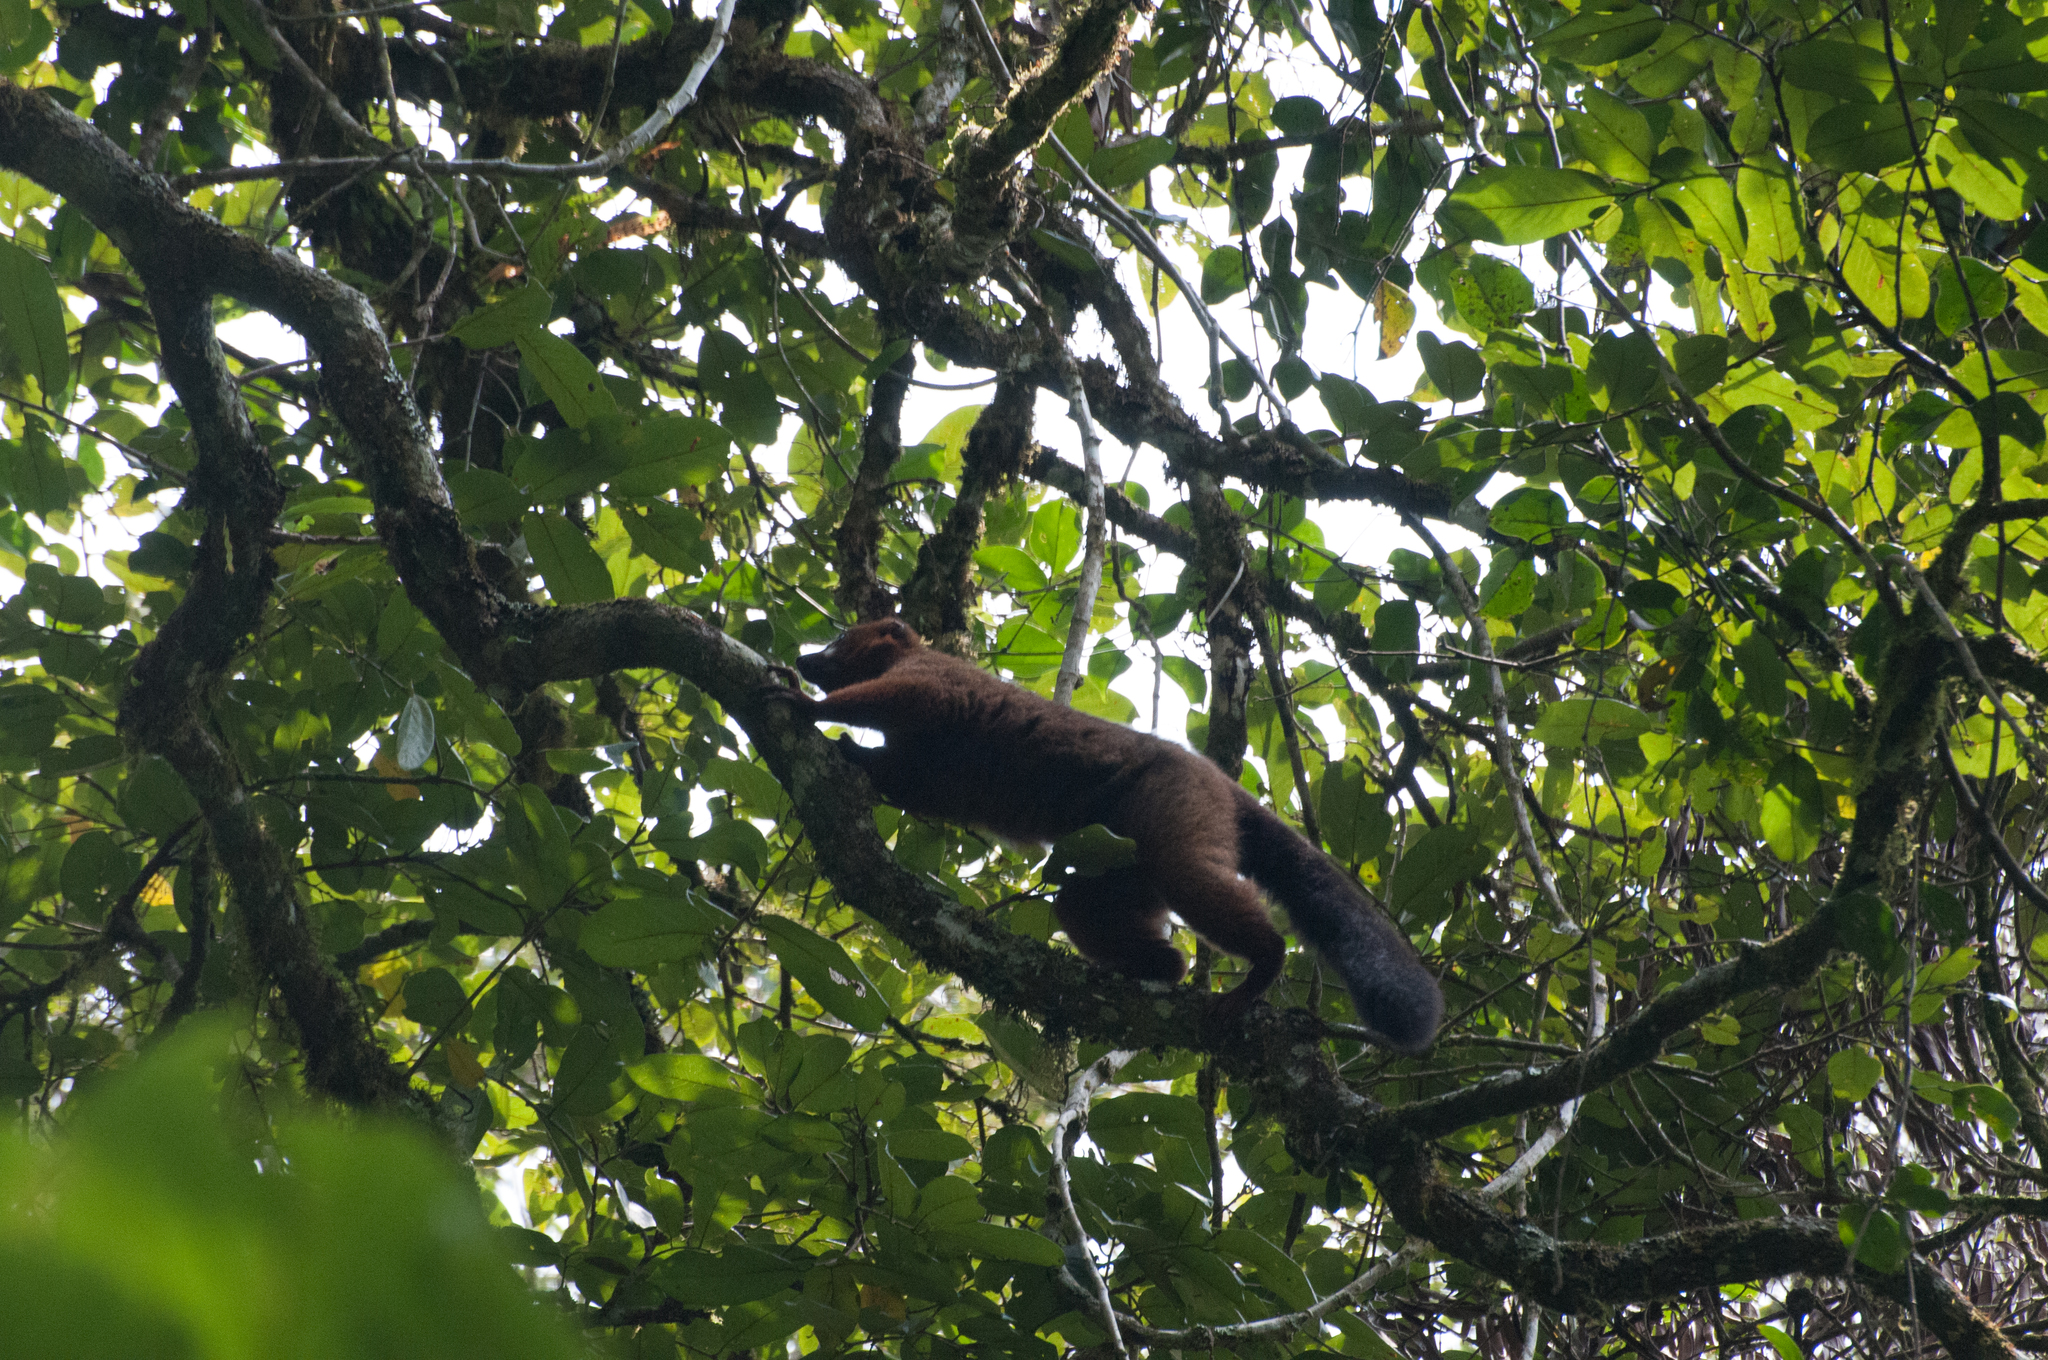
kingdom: Animalia
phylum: Chordata
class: Mammalia
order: Primates
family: Lemuridae
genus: Eulemur
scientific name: Eulemur rubriventer
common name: Red-bellied lemur
